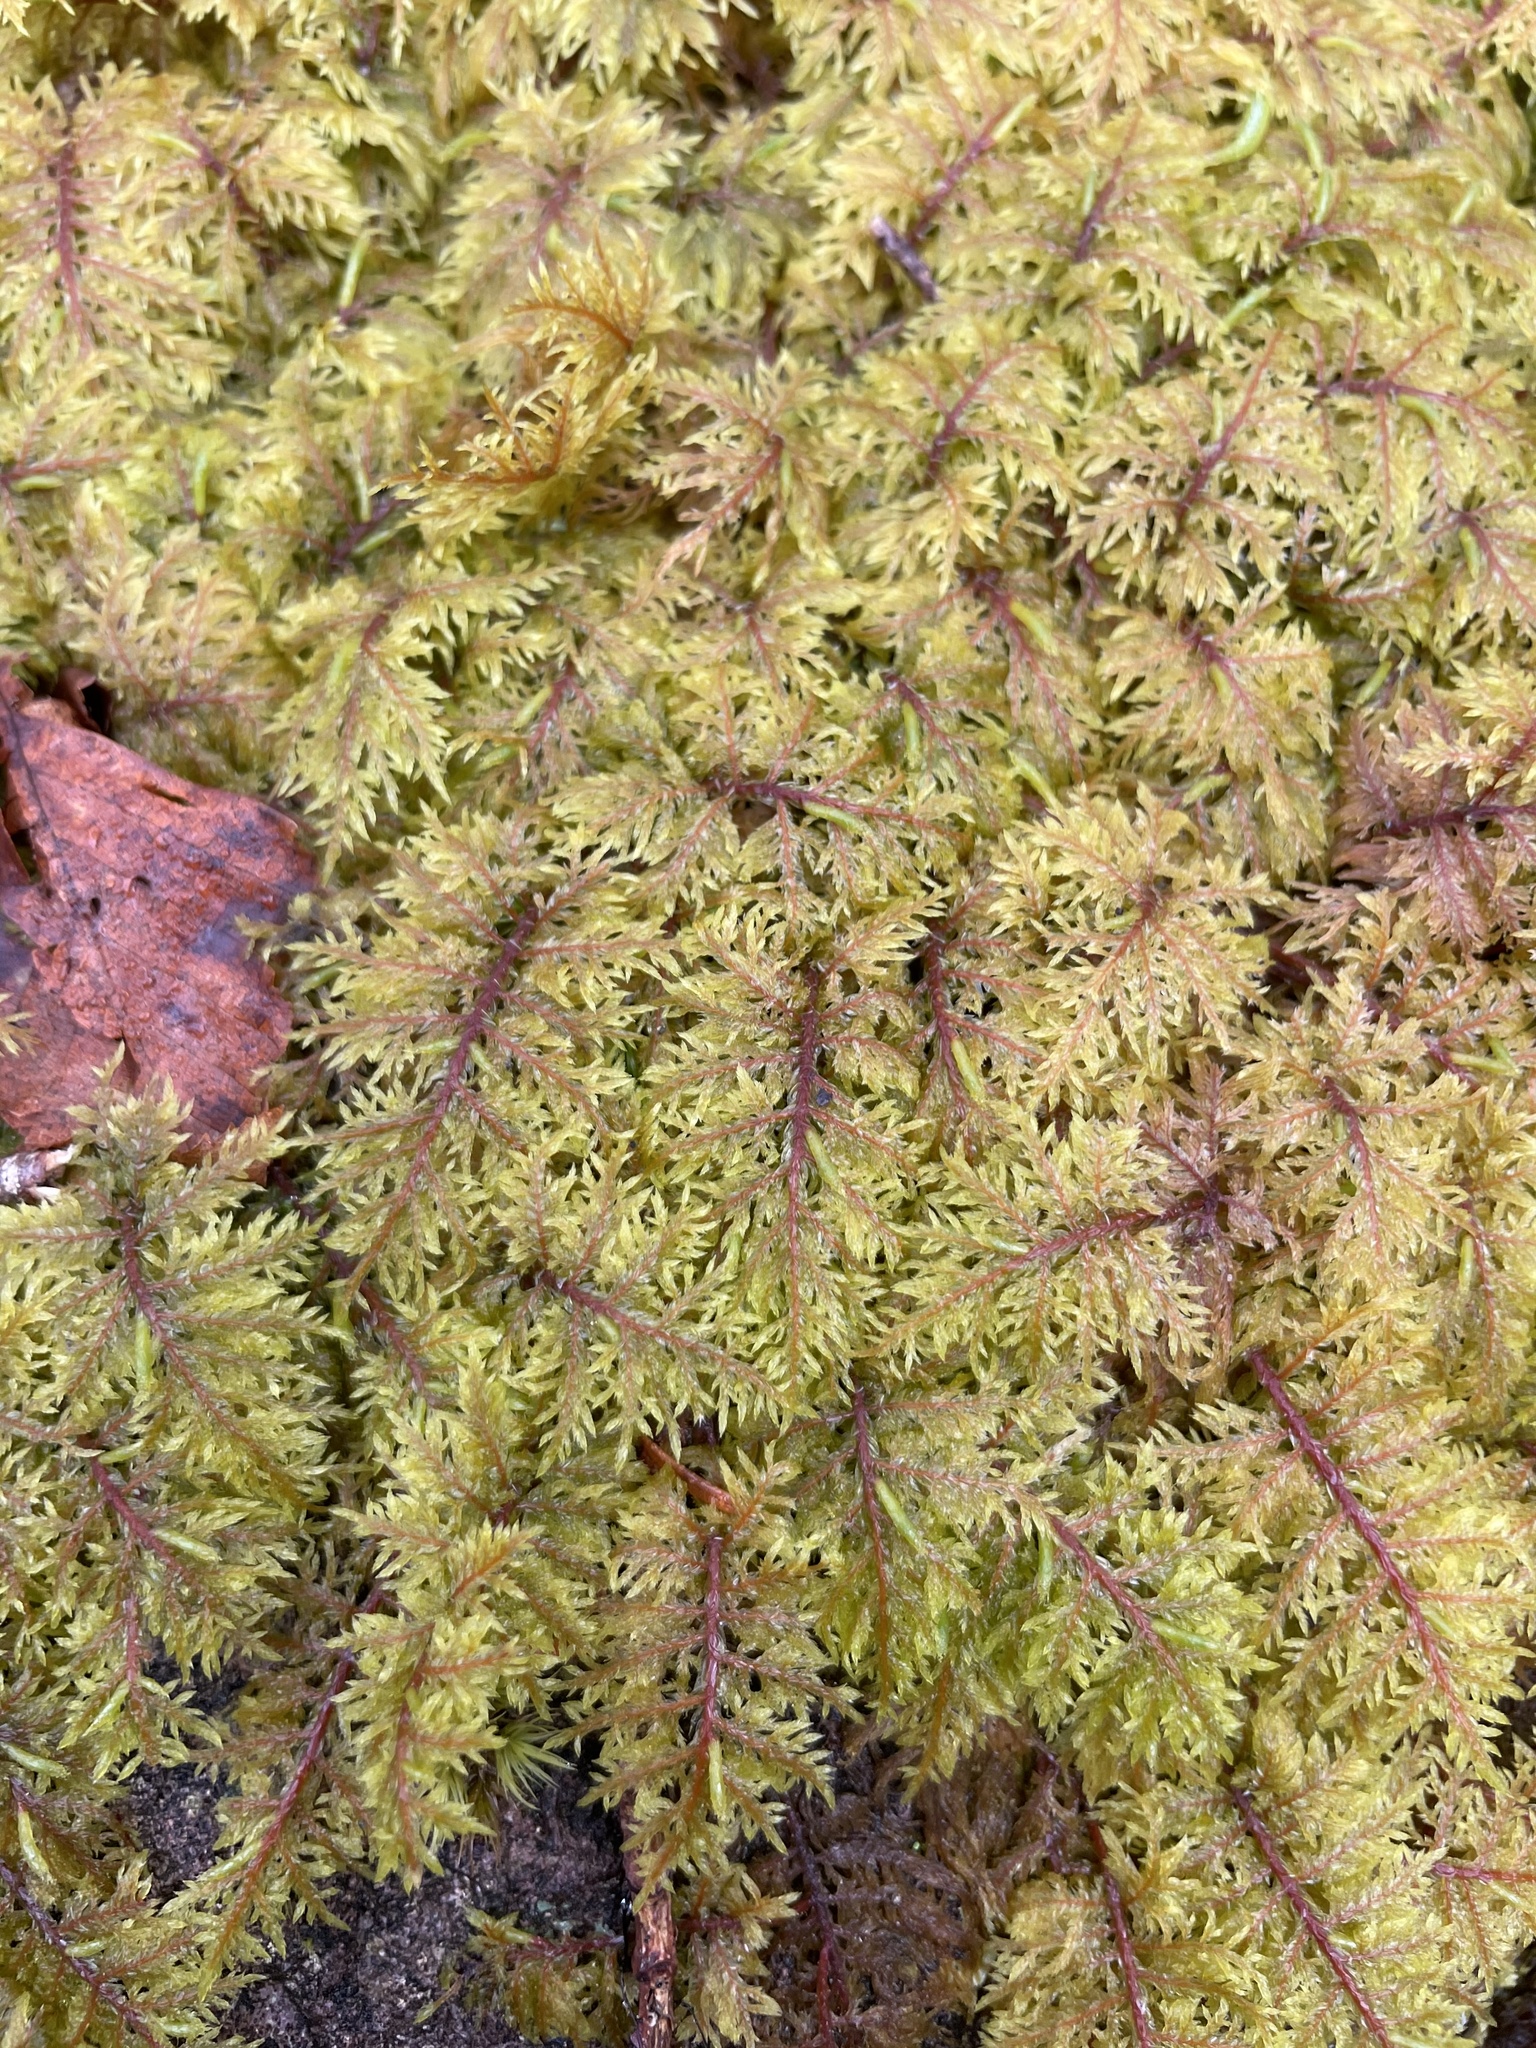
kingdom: Plantae
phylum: Bryophyta
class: Bryopsida
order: Hypnales
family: Hylocomiaceae
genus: Hylocomium
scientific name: Hylocomium splendens
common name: Stairstep moss
